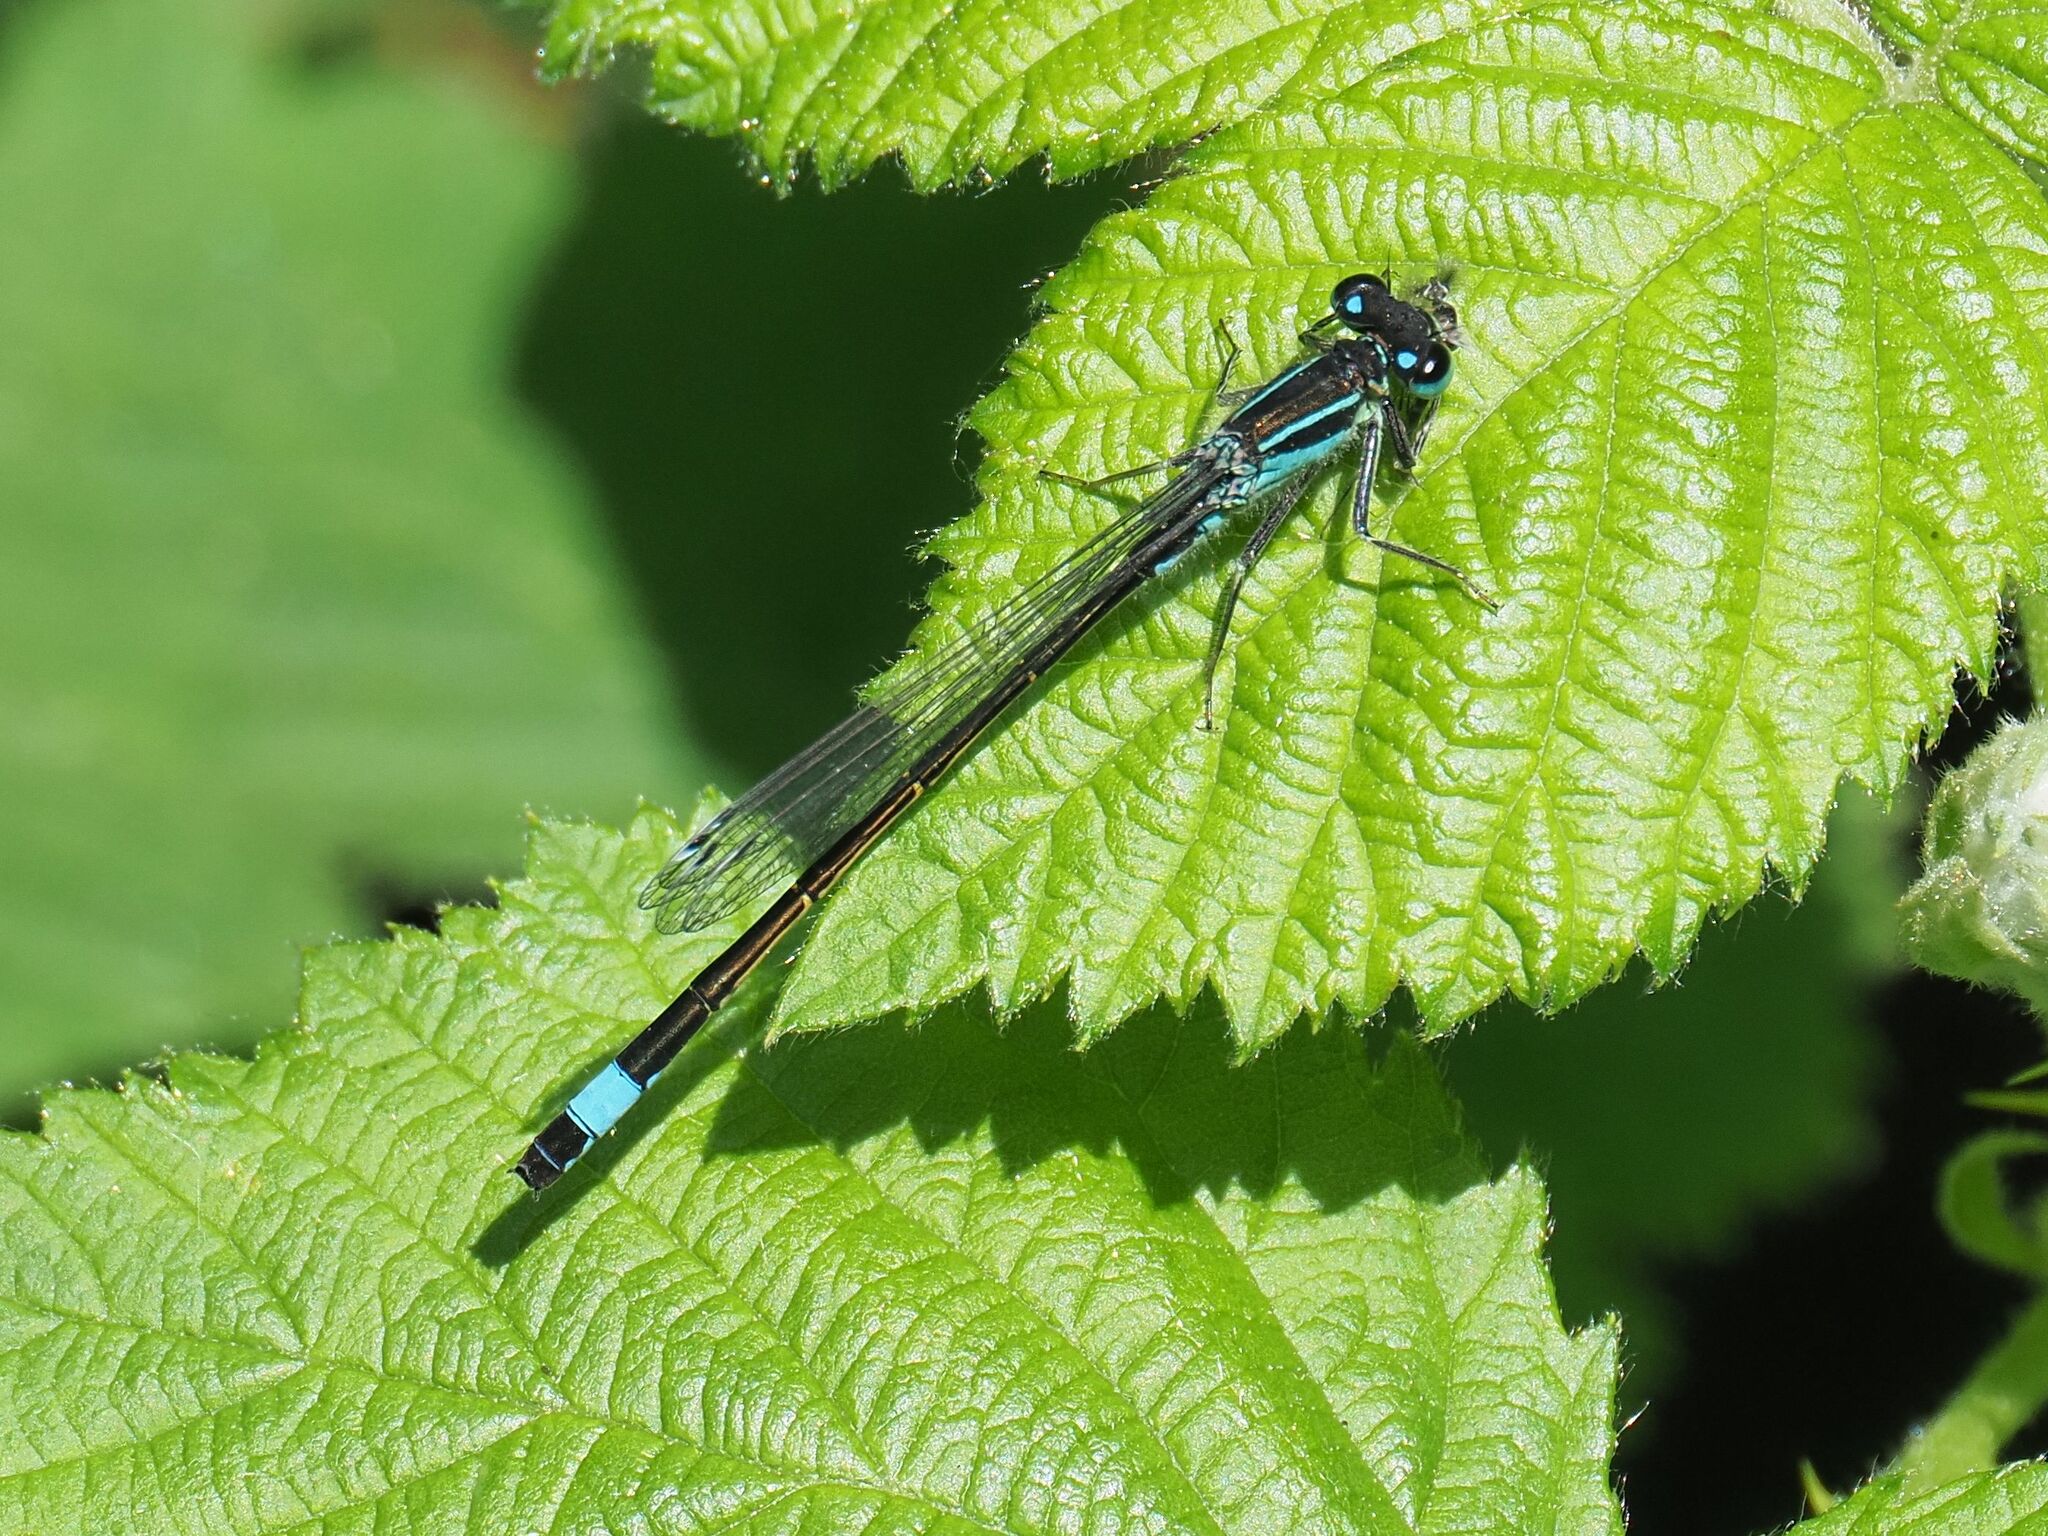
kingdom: Animalia
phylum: Arthropoda
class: Insecta
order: Odonata
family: Coenagrionidae
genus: Ischnura
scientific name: Ischnura elegans
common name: Blue-tailed damselfly
